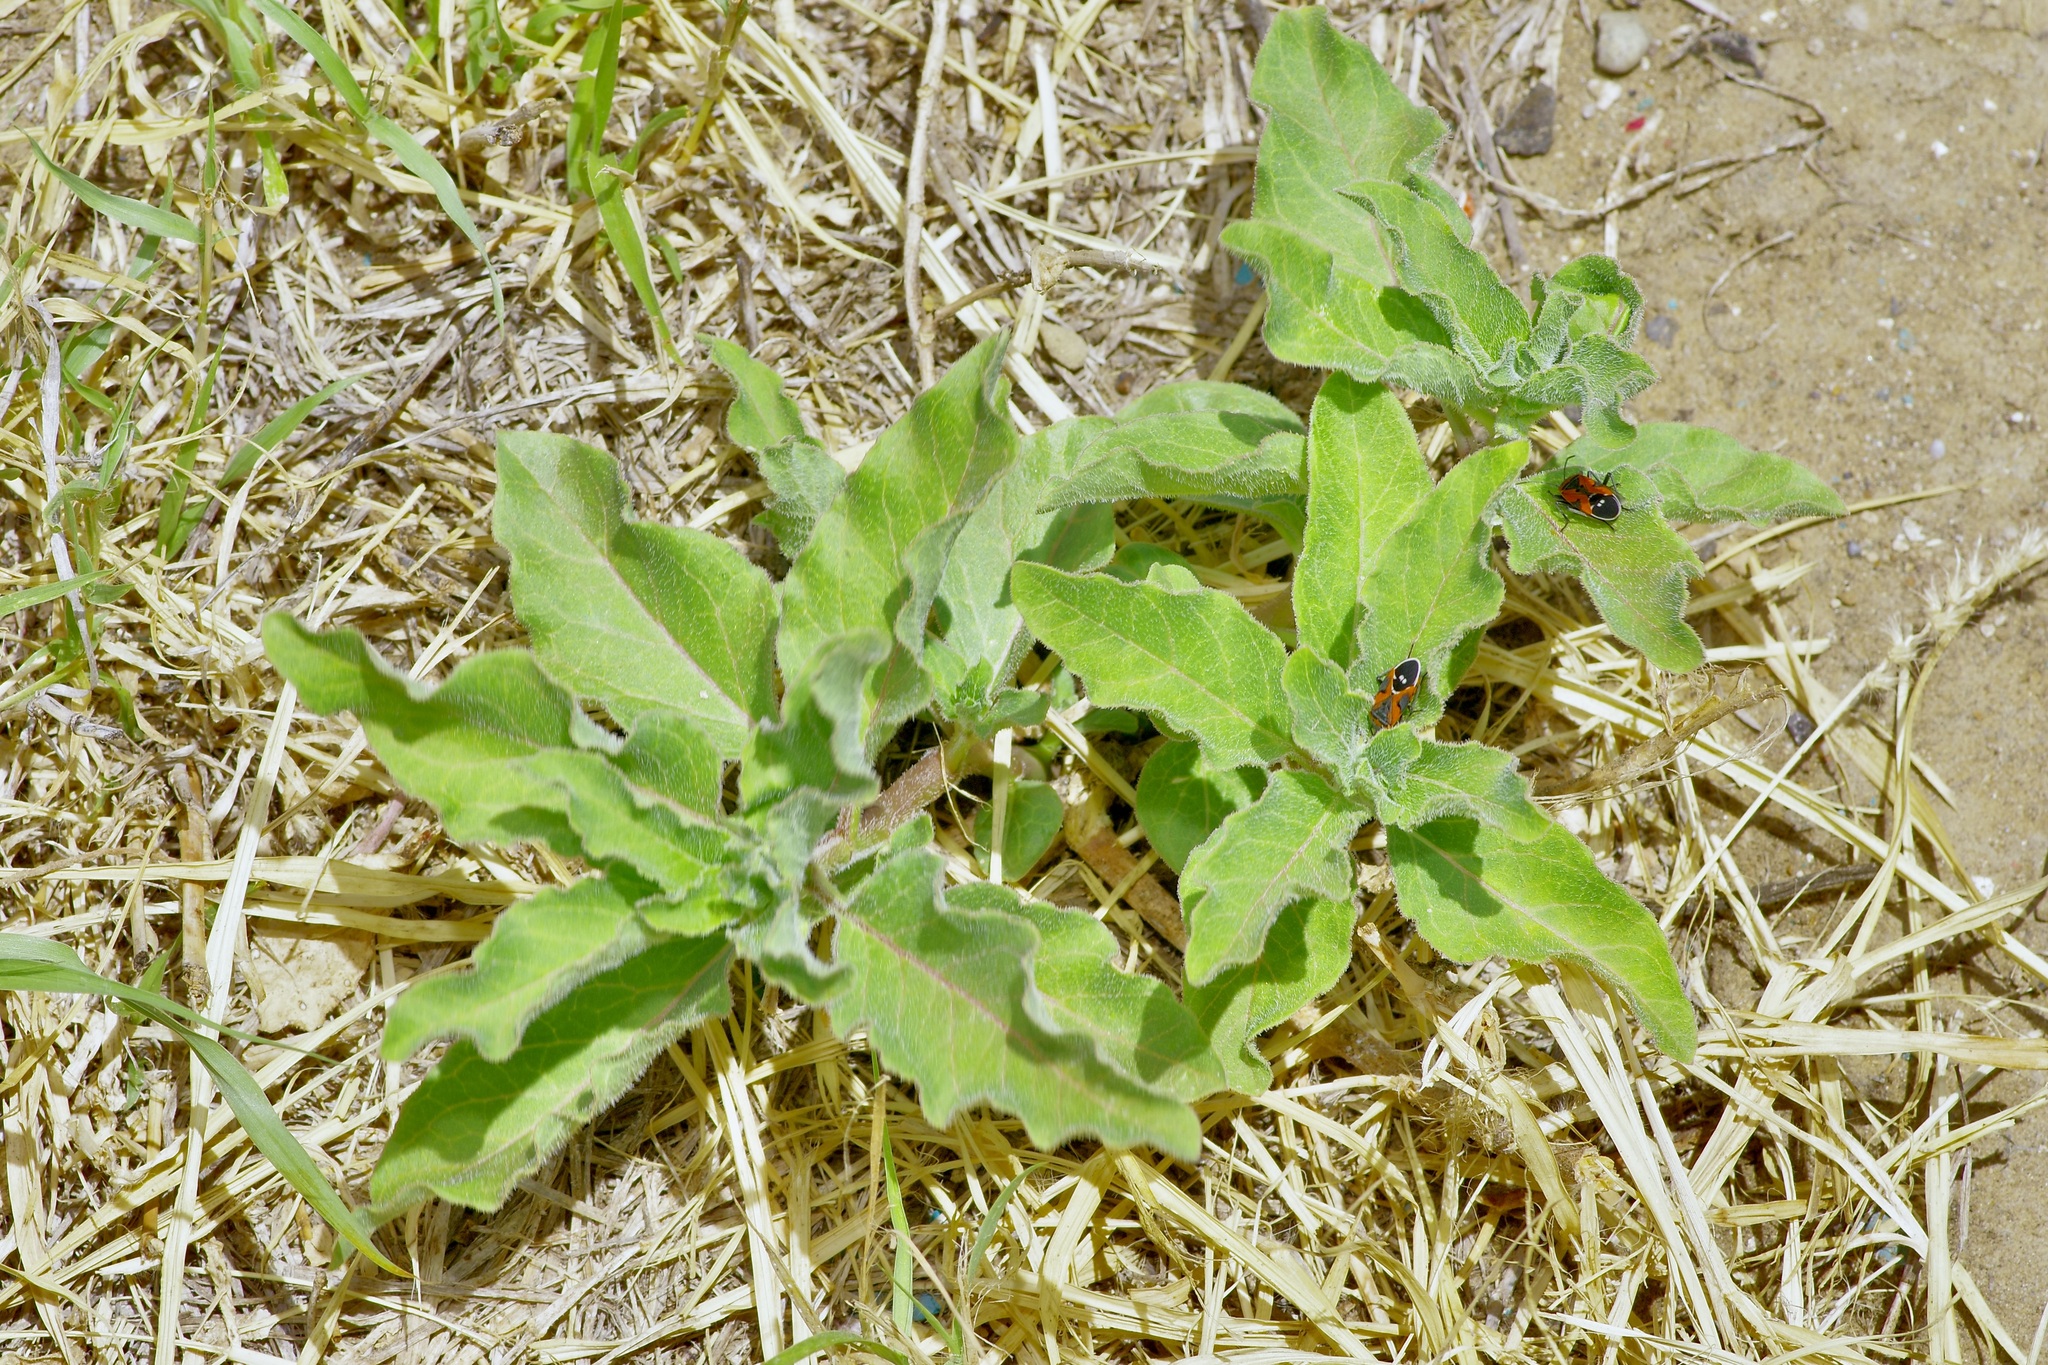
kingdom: Plantae
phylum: Tracheophyta
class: Magnoliopsida
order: Gentianales
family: Apocynaceae
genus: Asclepias
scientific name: Asclepias oenotheroides
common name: Zizotes milkweed
